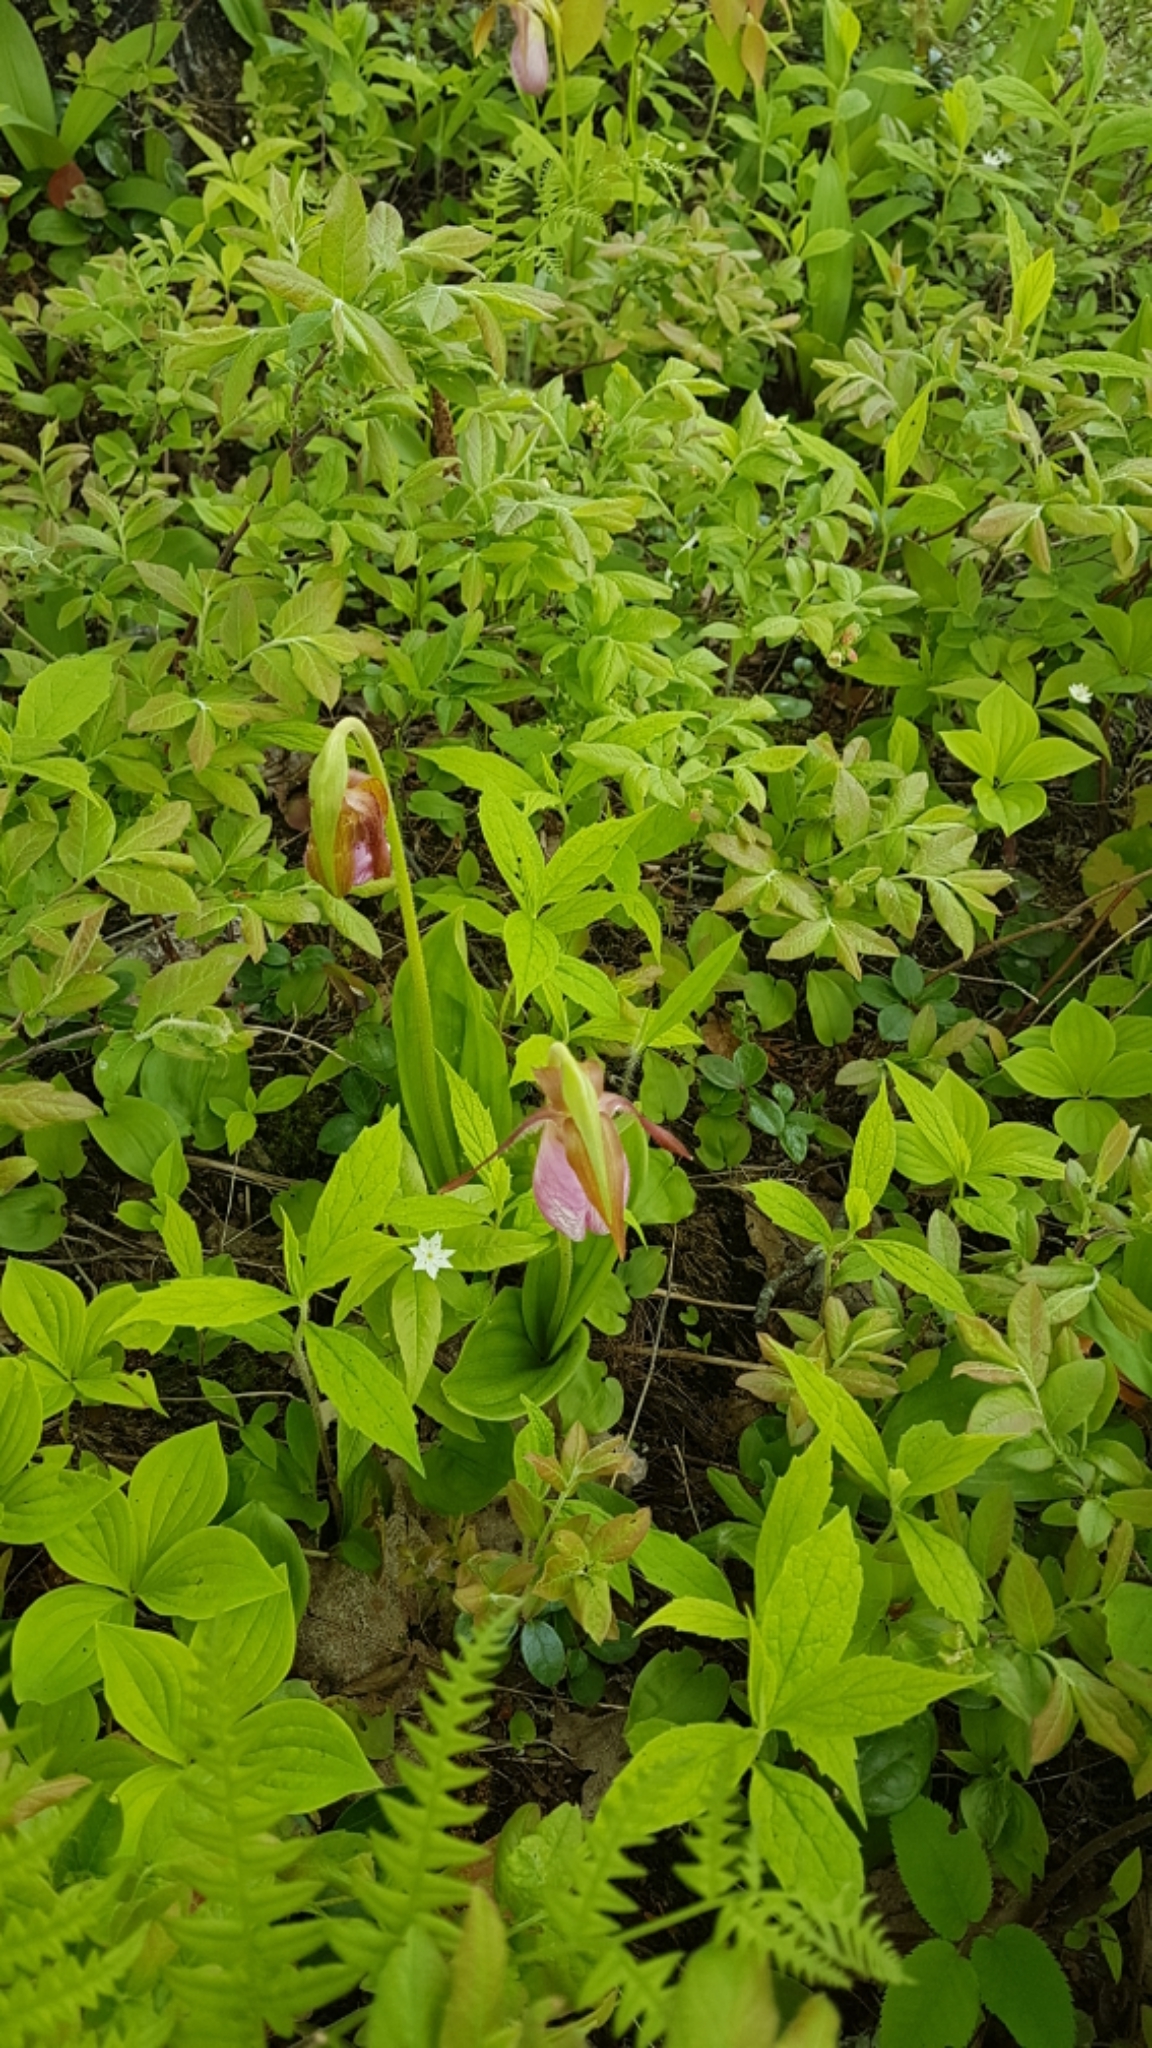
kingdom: Plantae
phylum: Tracheophyta
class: Liliopsida
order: Asparagales
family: Orchidaceae
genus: Cypripedium
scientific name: Cypripedium acaule
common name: Pink lady's-slipper
